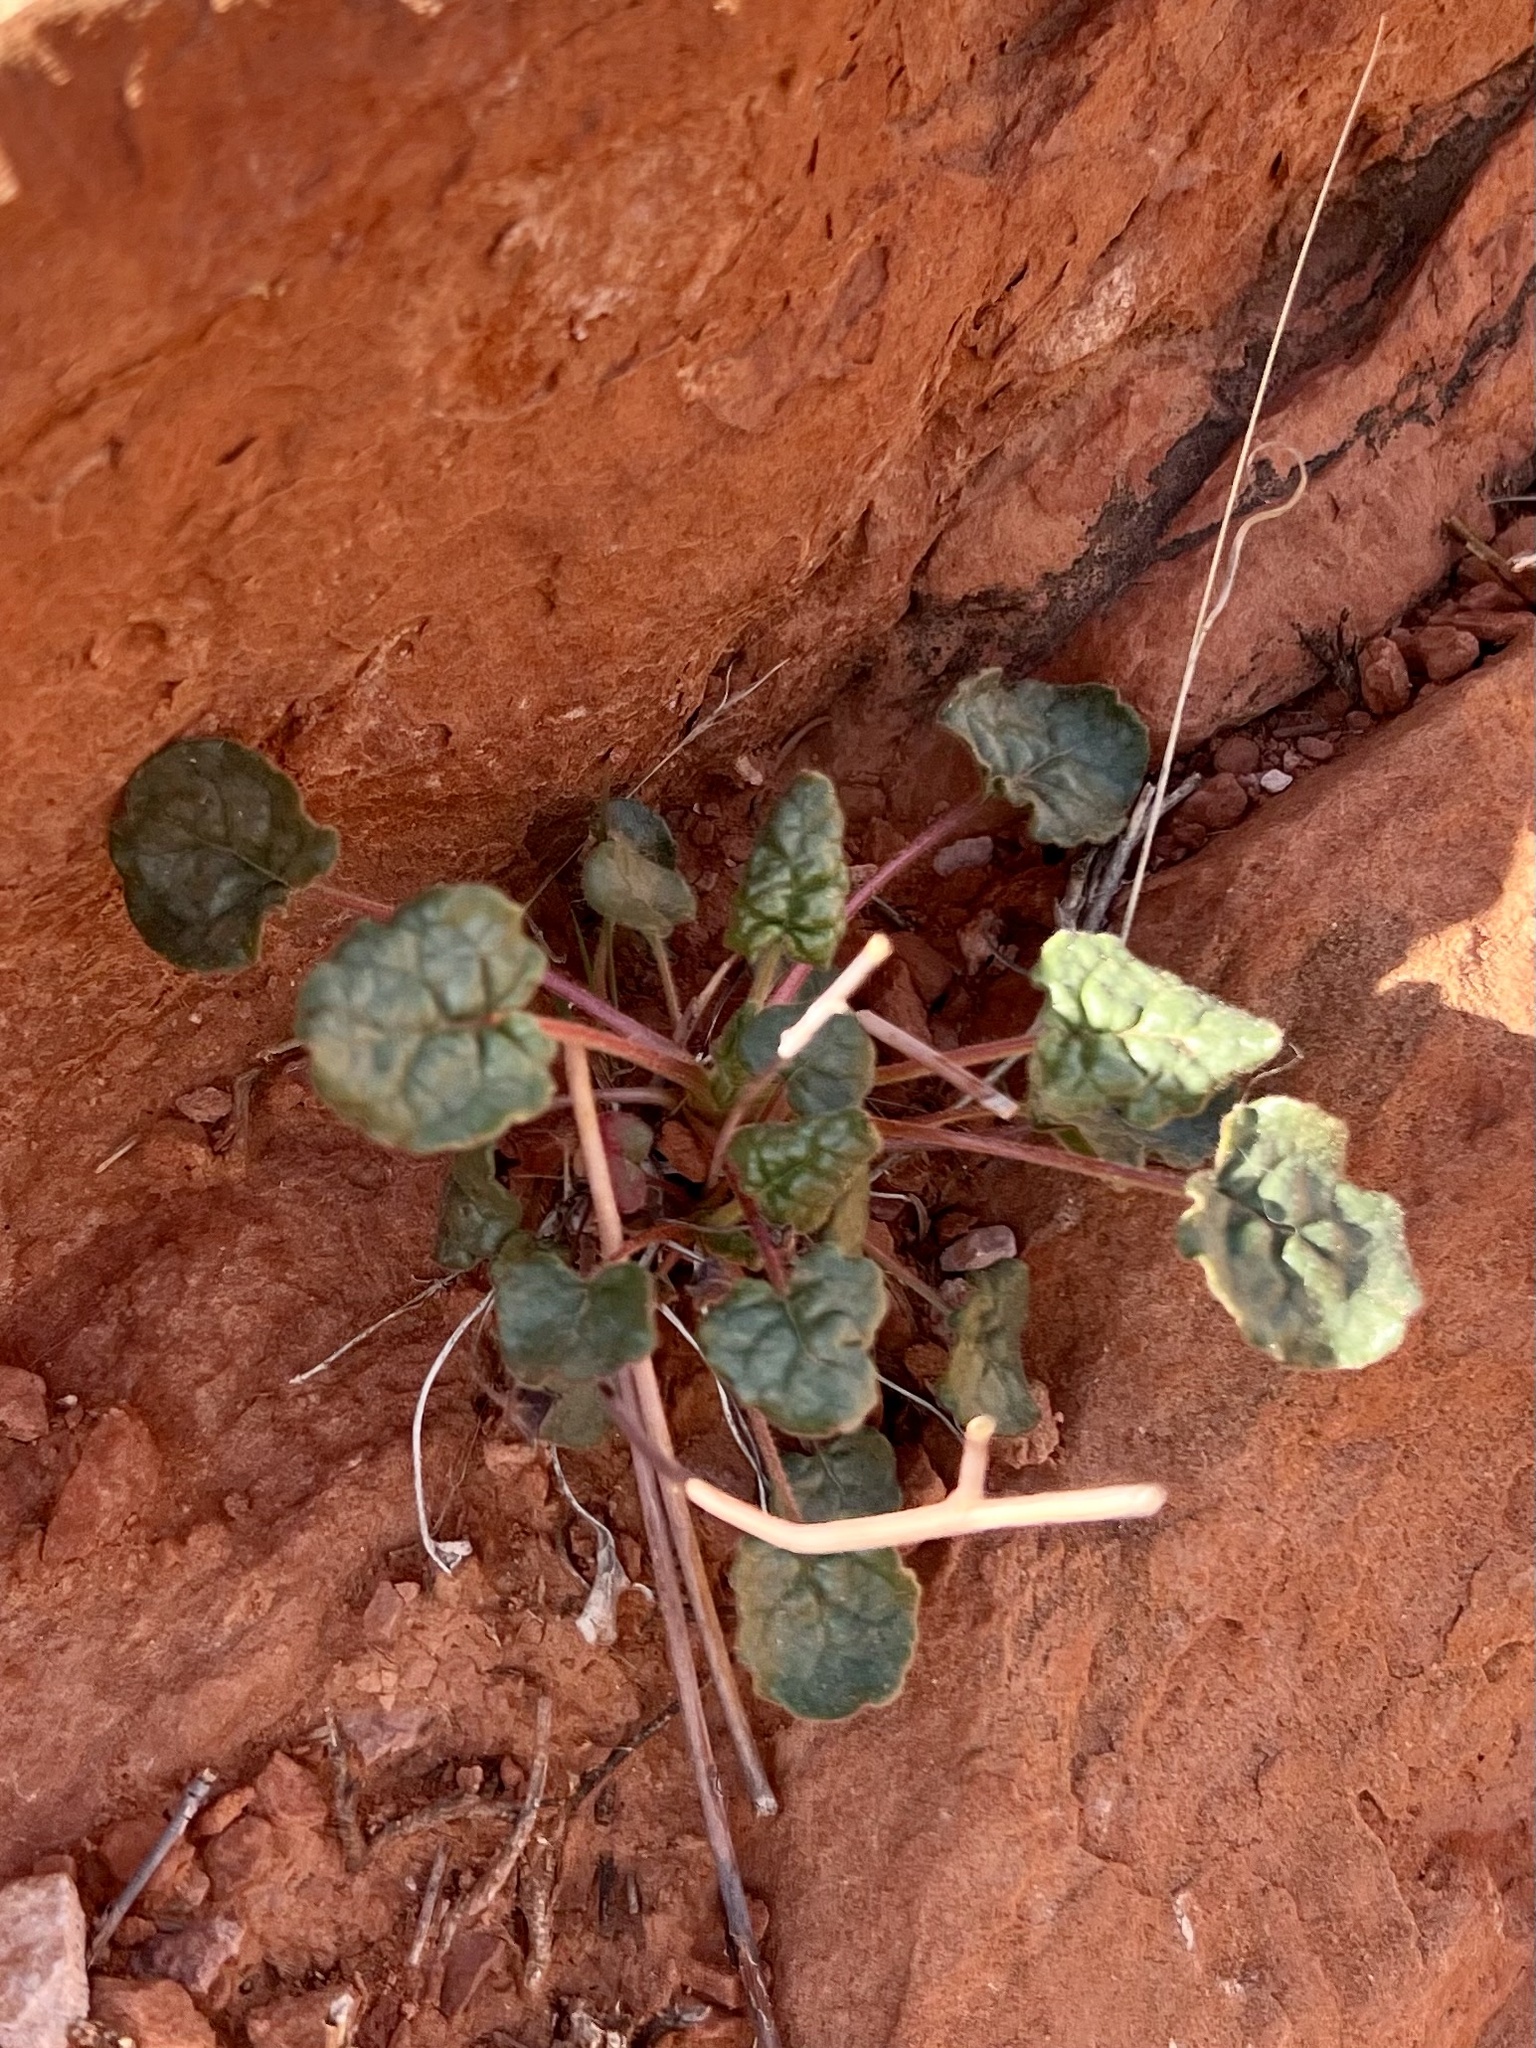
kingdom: Plantae
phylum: Tracheophyta
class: Magnoliopsida
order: Caryophyllales
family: Polygonaceae
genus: Eriogonum
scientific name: Eriogonum inflatum
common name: Desert trumpet
